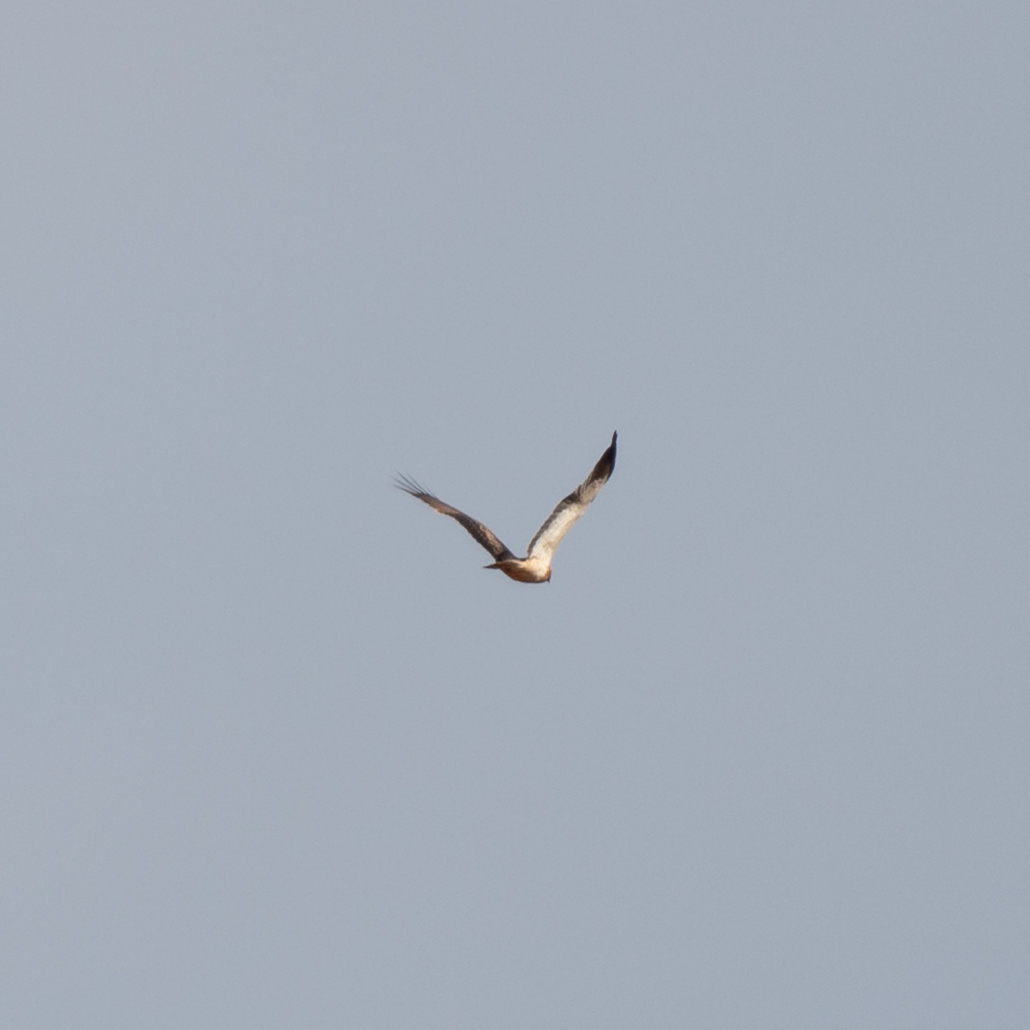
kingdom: Animalia
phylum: Chordata
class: Aves
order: Accipitriformes
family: Accipitridae
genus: Hieraaetus
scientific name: Hieraaetus pennatus
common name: Booted eagle
